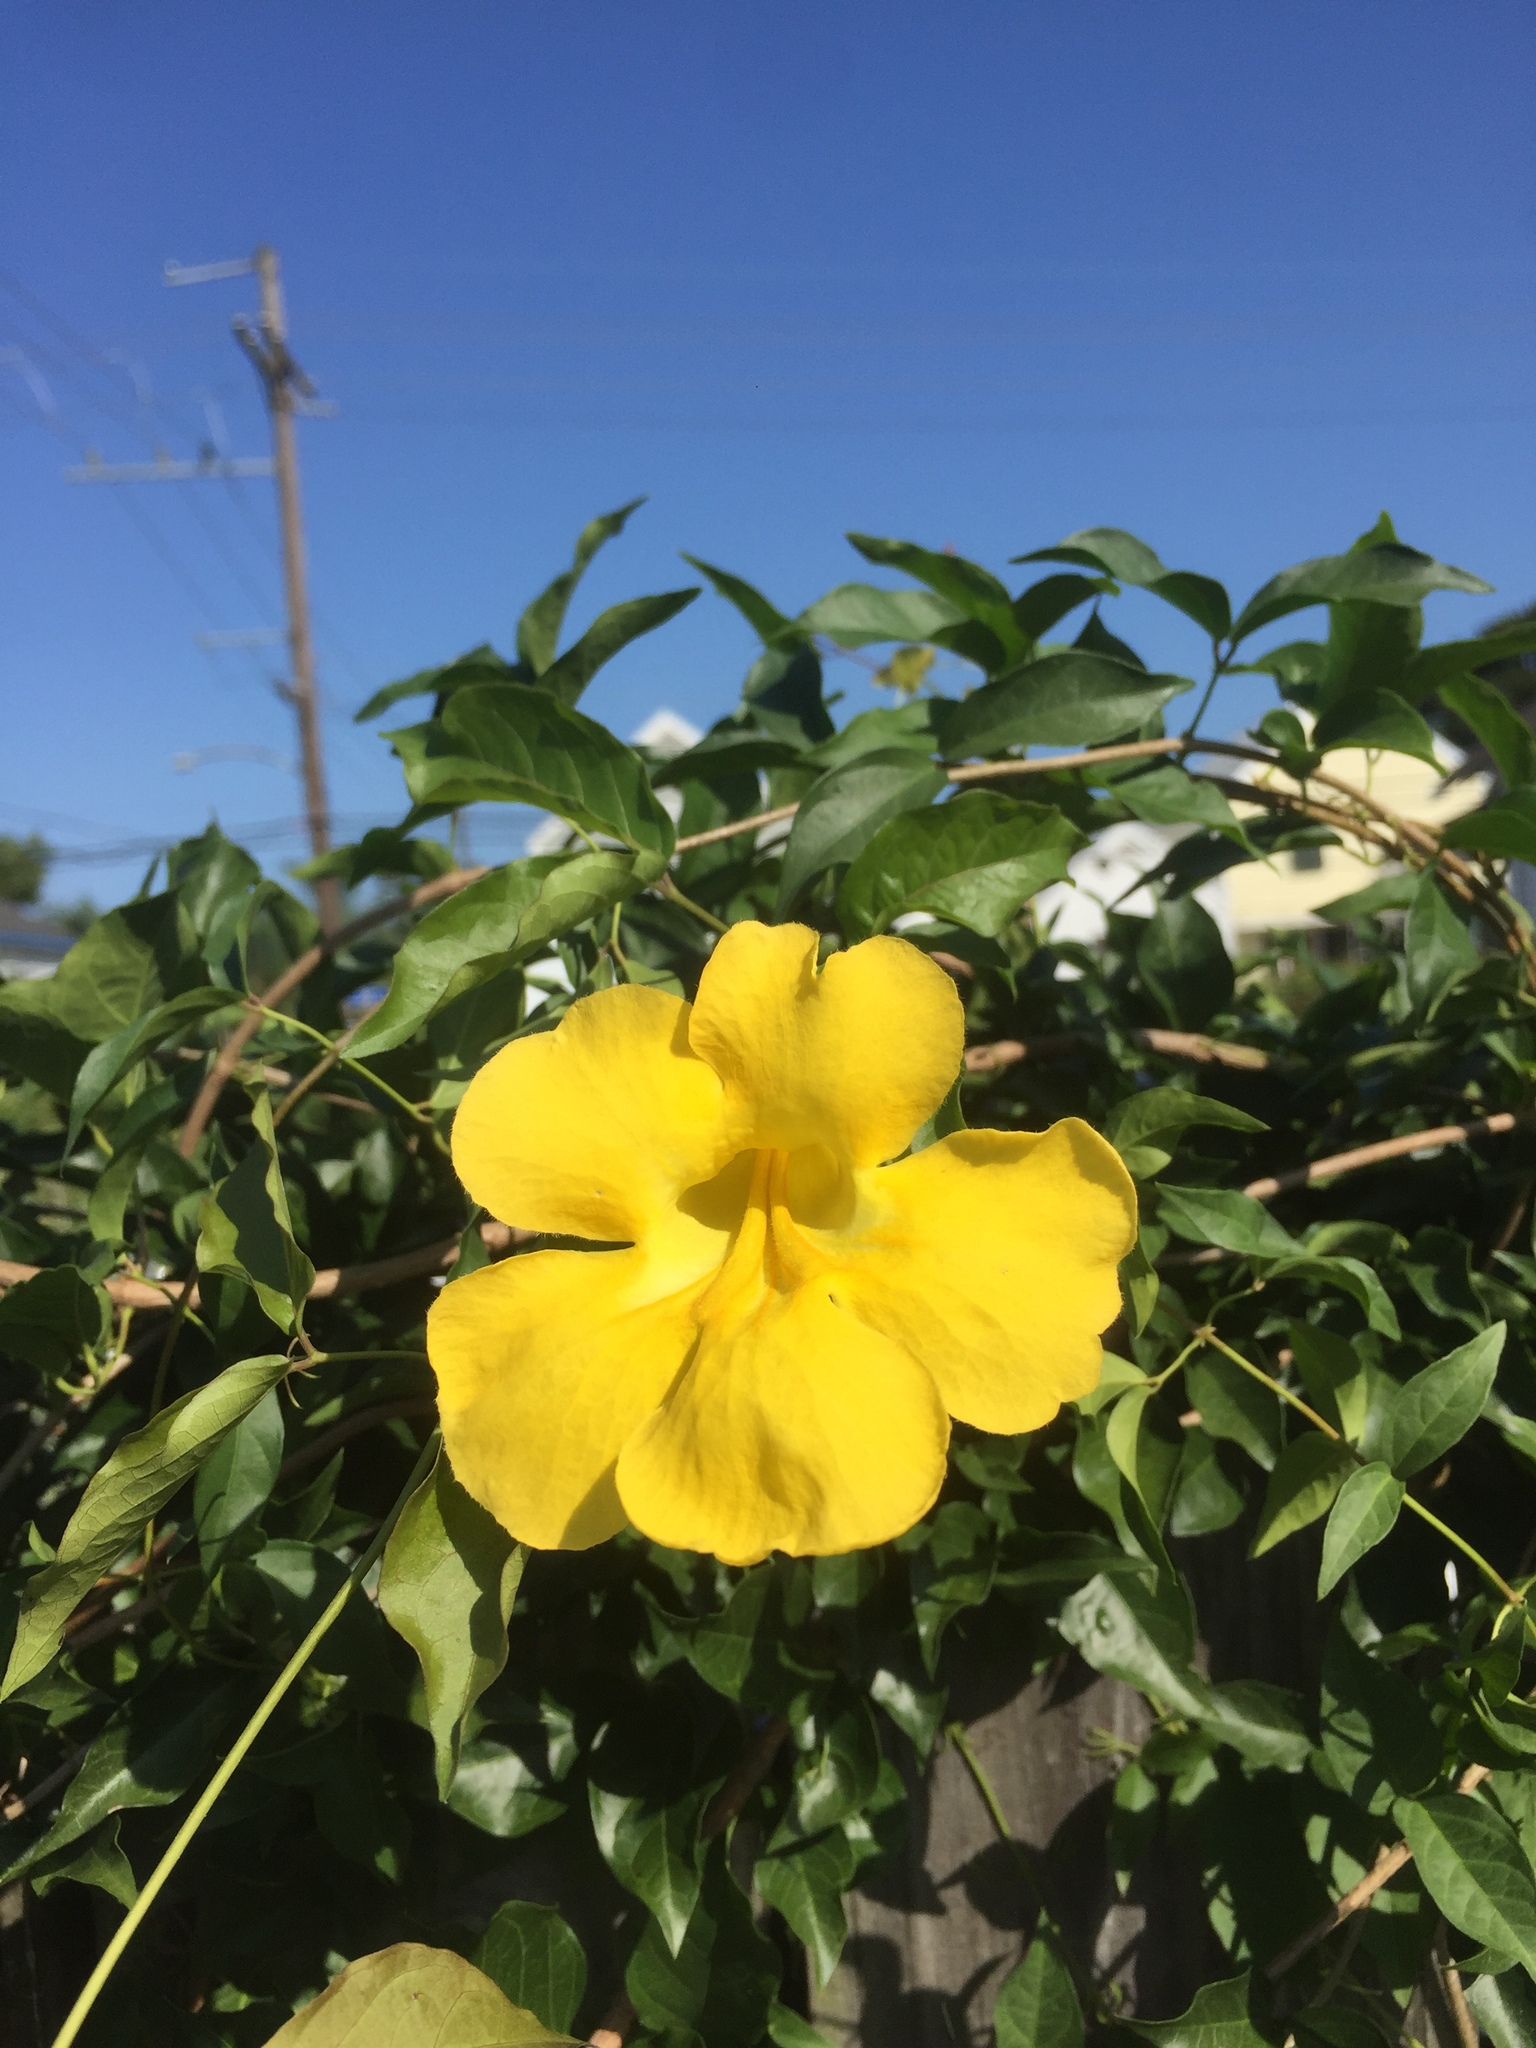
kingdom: Plantae
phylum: Tracheophyta
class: Magnoliopsida
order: Gentianales
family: Gelsemiaceae
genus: Gelsemium
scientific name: Gelsemium sempervirens
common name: Carolina-jasmine
